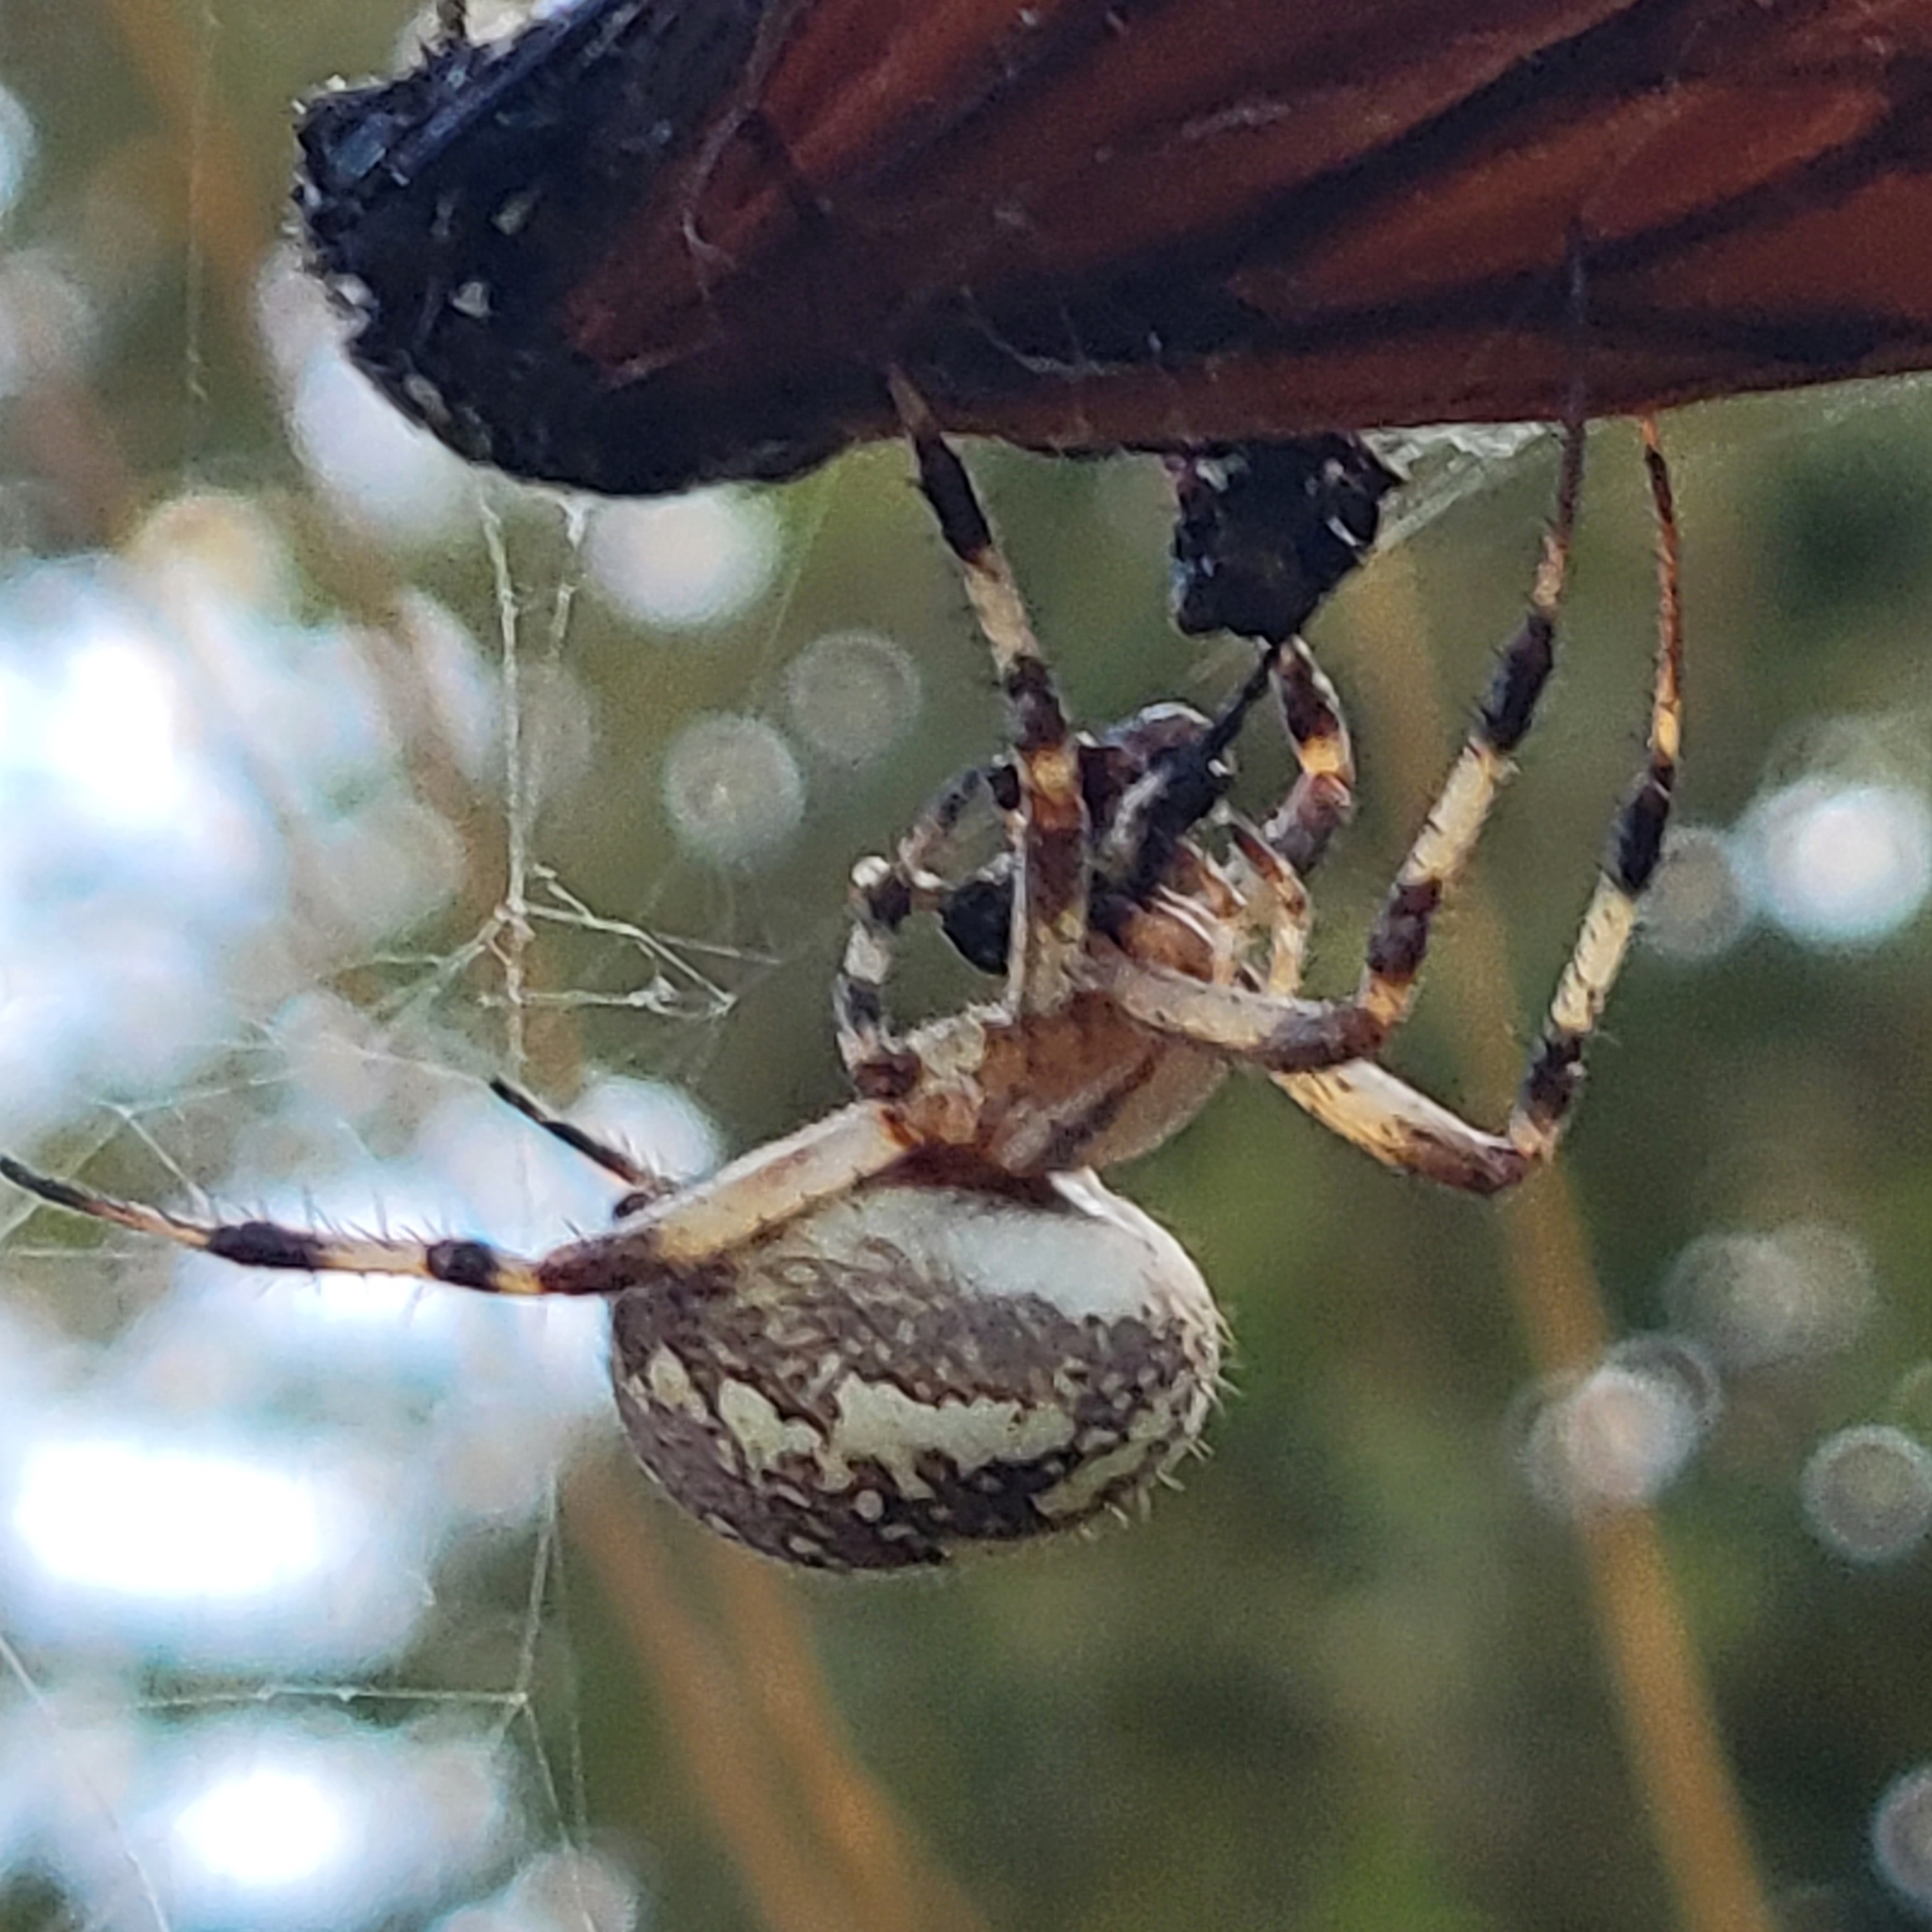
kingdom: Animalia
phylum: Arthropoda
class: Arachnida
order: Araneae
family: Araneidae
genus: Neoscona
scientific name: Neoscona oaxacensis
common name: Orb weavers
